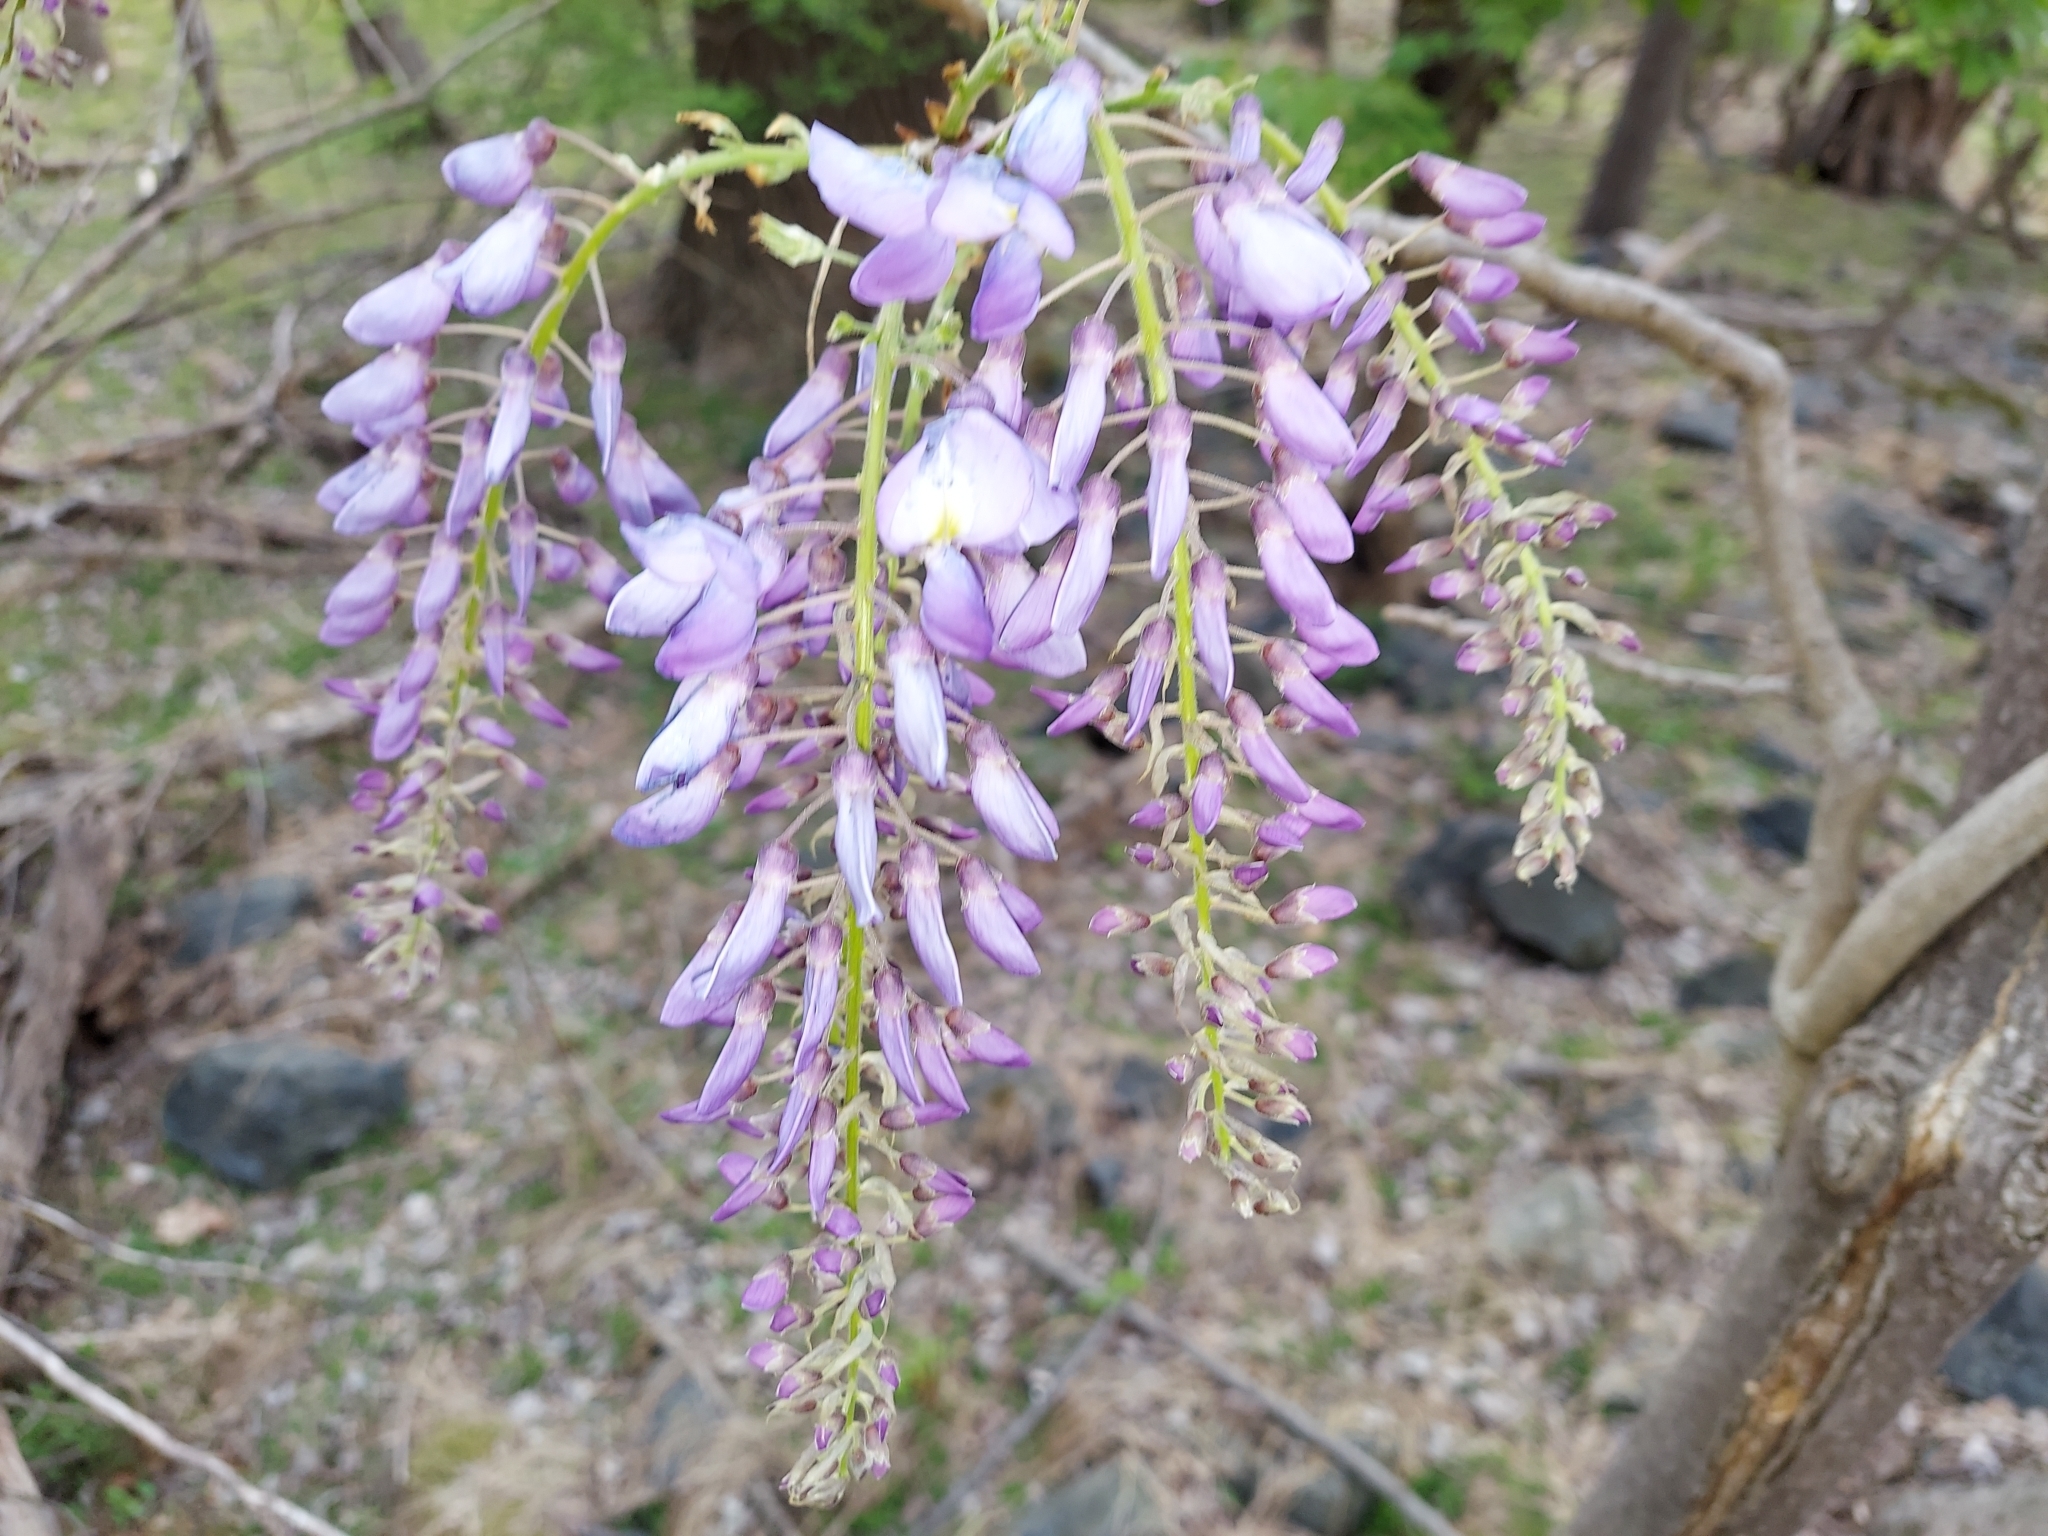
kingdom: Plantae
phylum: Tracheophyta
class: Magnoliopsida
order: Fabales
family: Fabaceae
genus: Wisteria
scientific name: Wisteria sinensis
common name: Chinese wisteria
